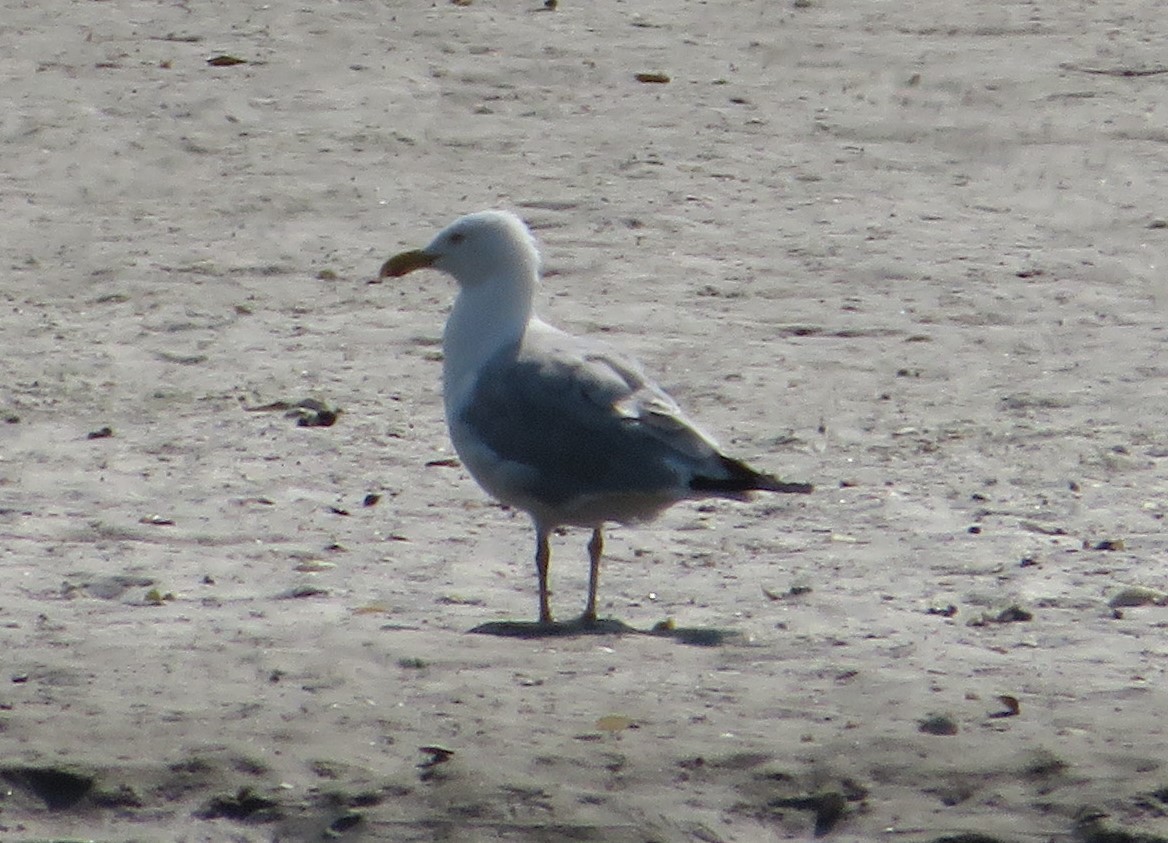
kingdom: Animalia
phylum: Chordata
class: Aves
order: Charadriiformes
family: Laridae
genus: Larus
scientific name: Larus argentatus
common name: Herring gull
